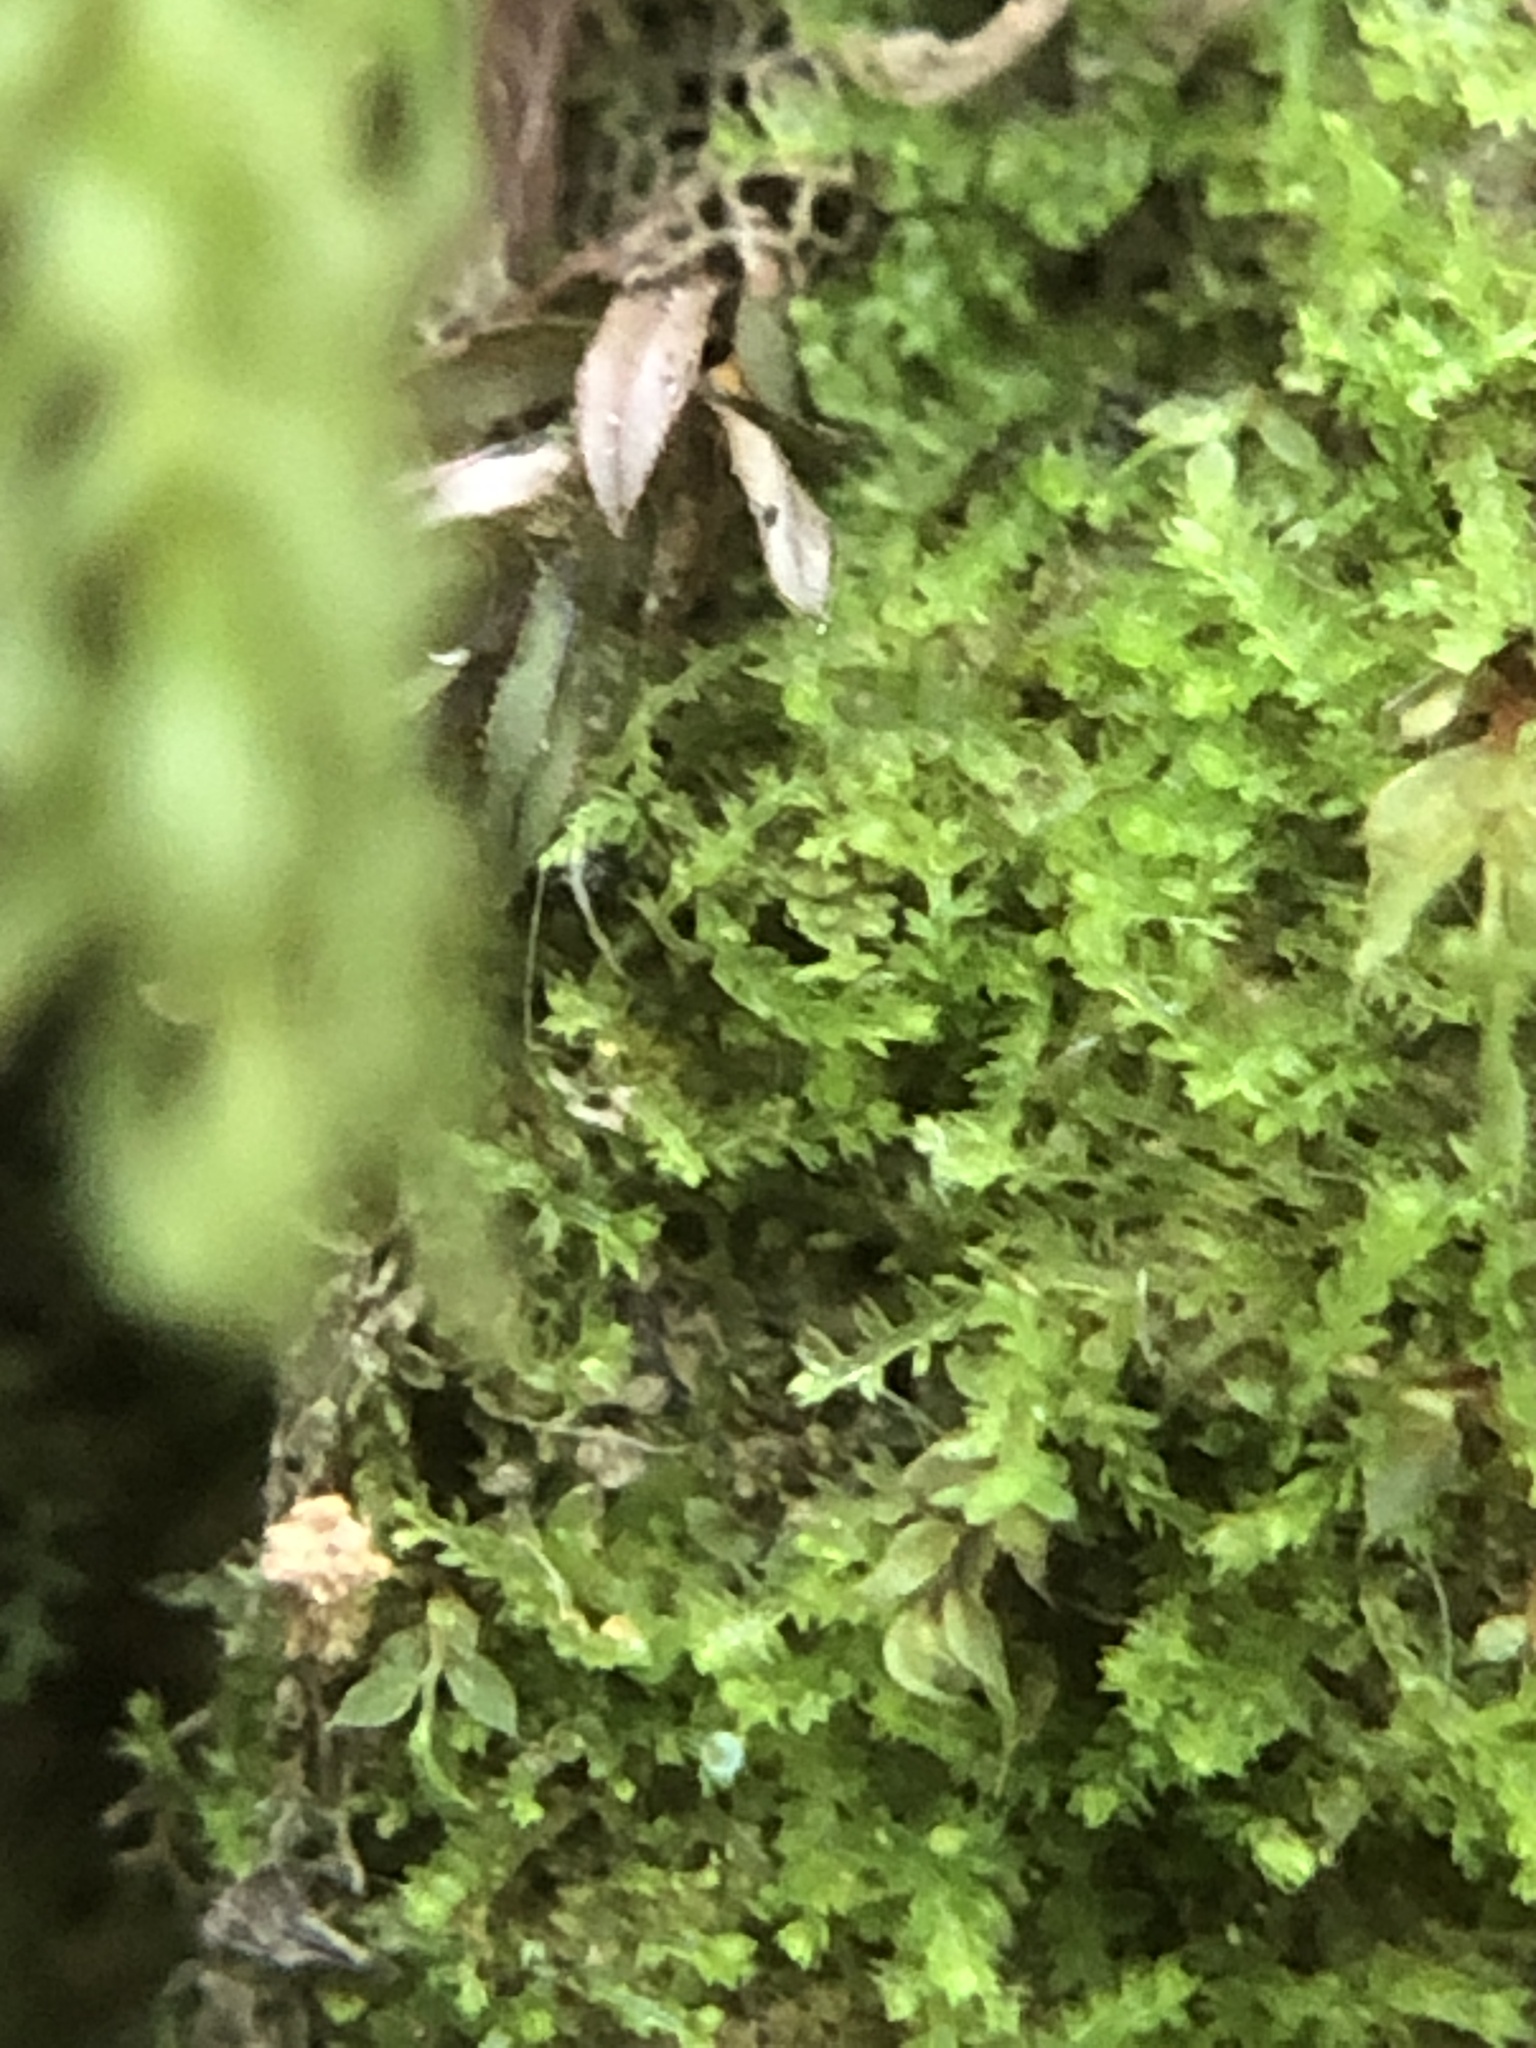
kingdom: Plantae
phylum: Marchantiophyta
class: Jungermanniopsida
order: Jungermanniales
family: Cephaloziaceae
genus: Cephalozia
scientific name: Cephalozia bicuspidata
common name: Two-horned pincerwort
